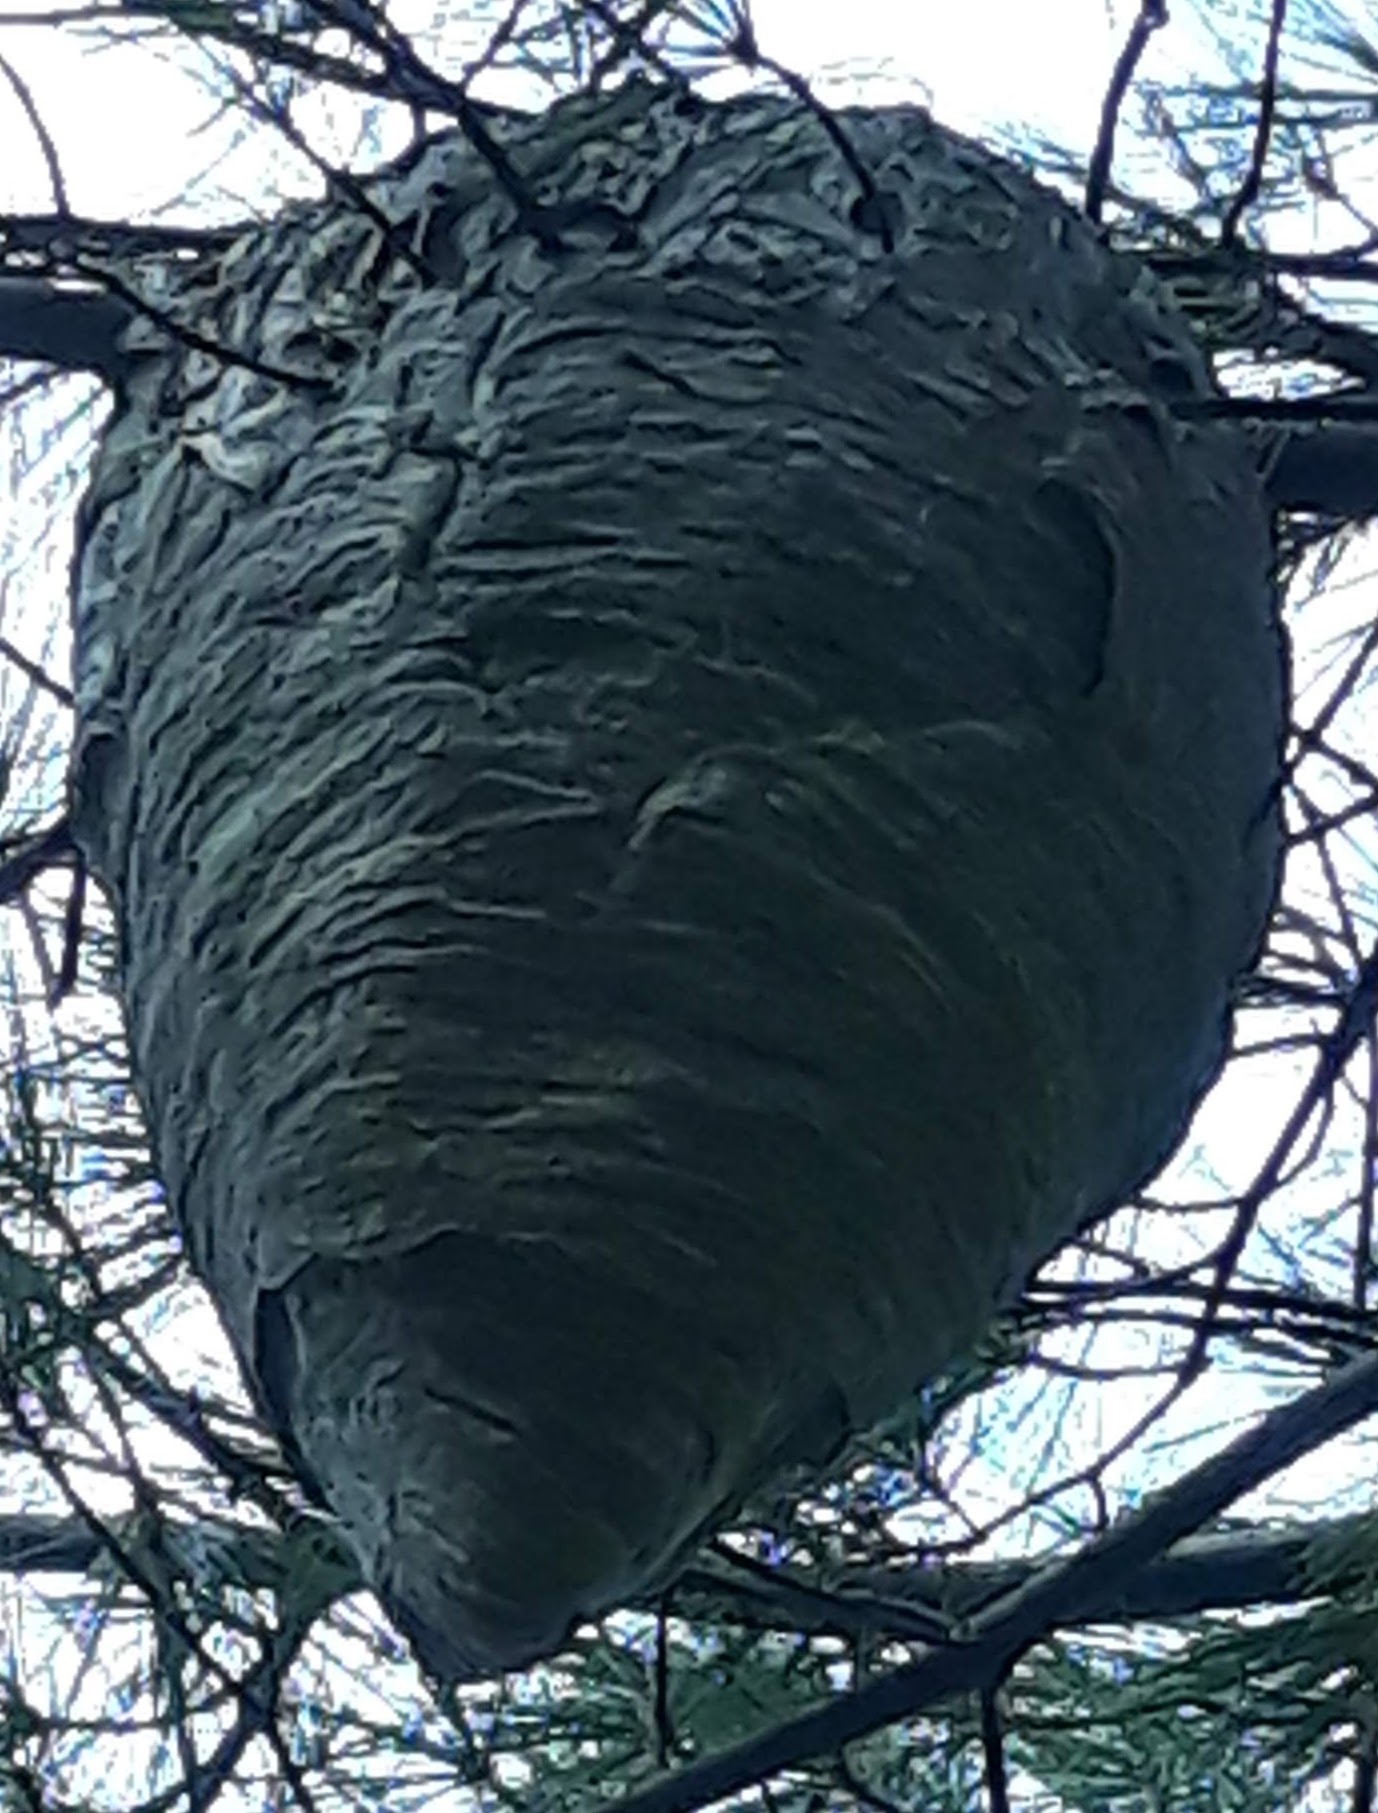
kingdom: Animalia
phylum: Arthropoda
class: Insecta
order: Hymenoptera
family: Vespidae
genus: Dolichovespula
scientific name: Dolichovespula
